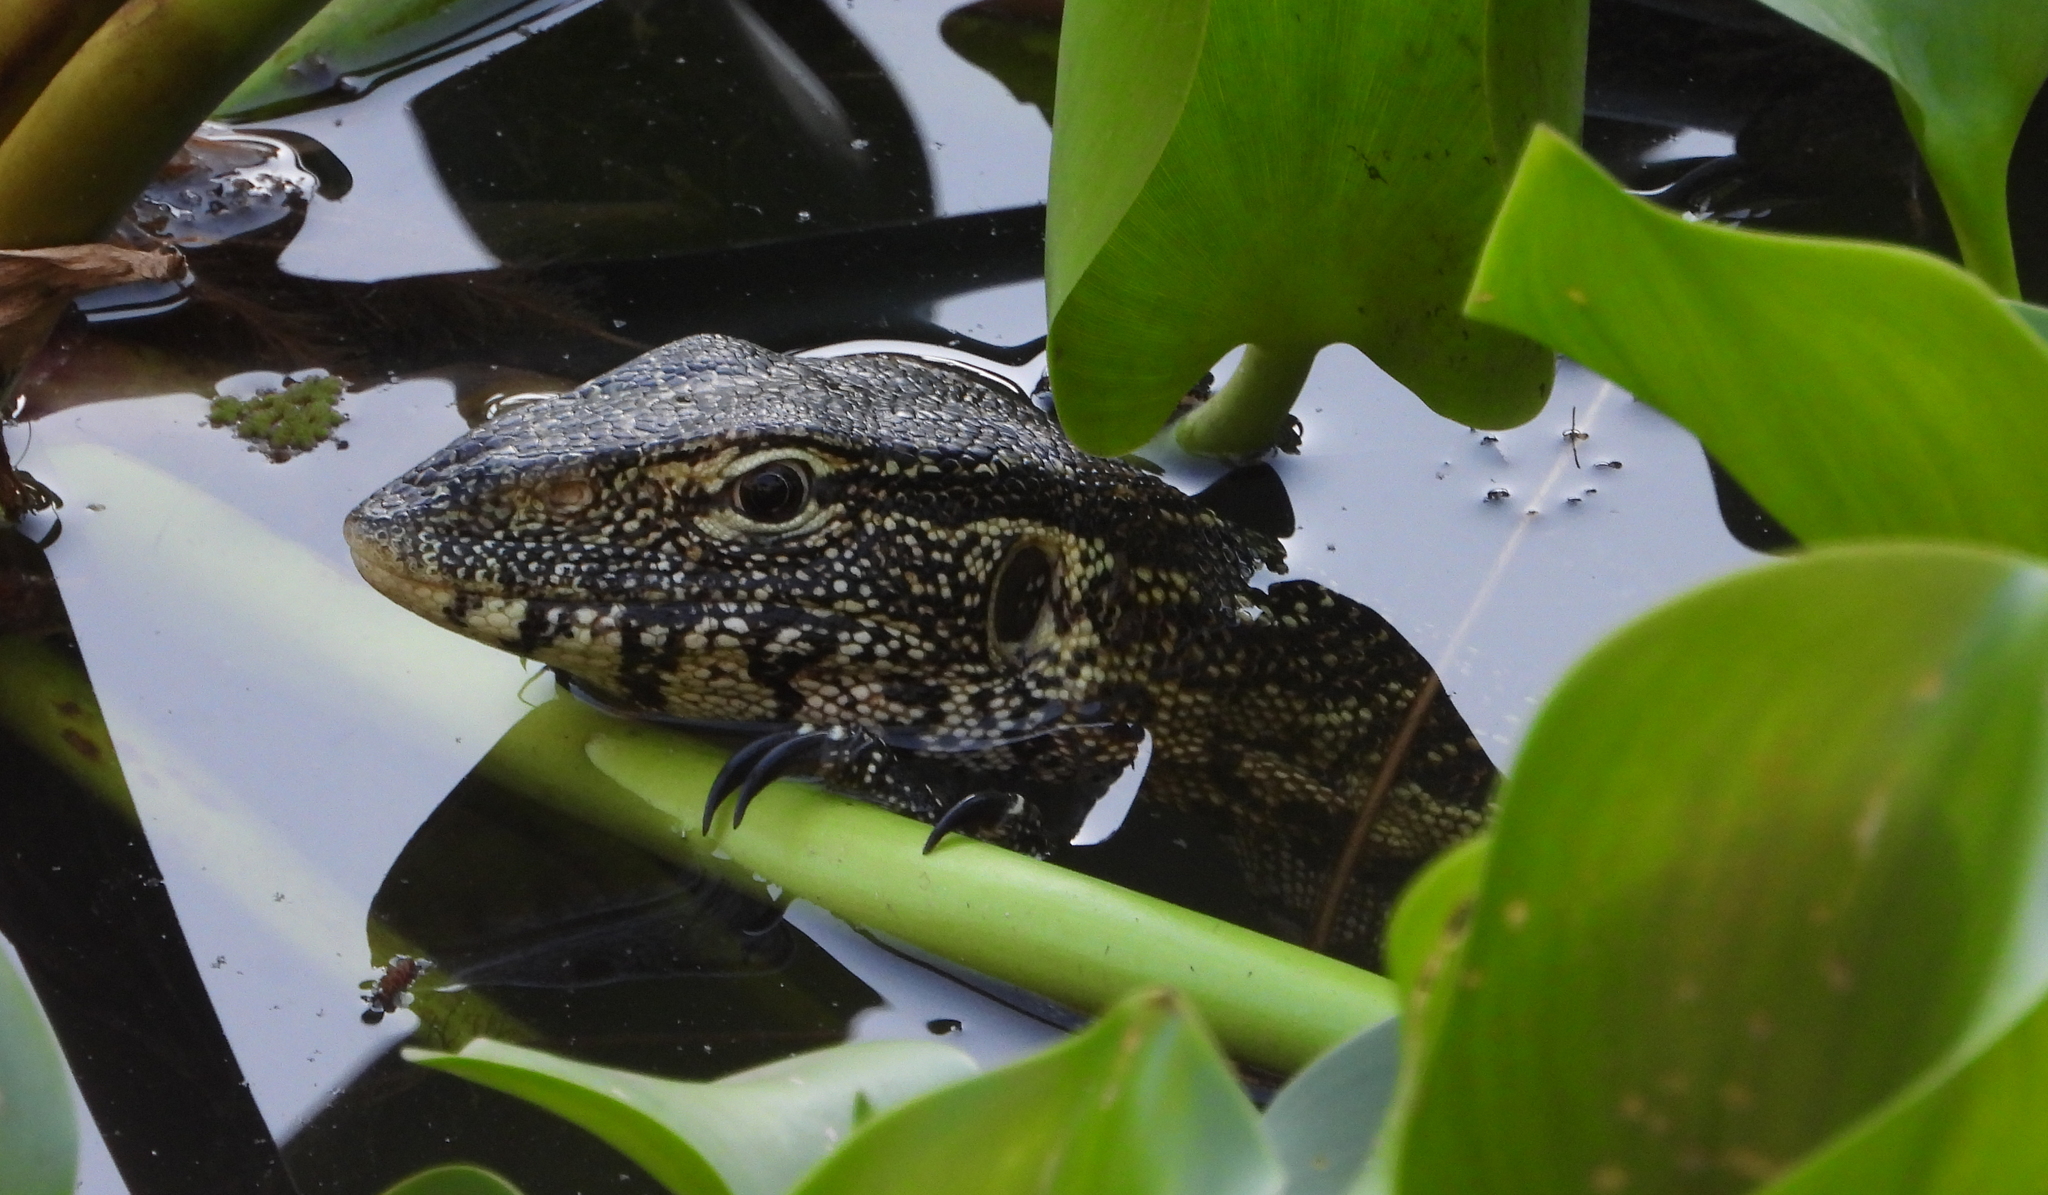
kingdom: Animalia
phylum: Chordata
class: Squamata
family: Varanidae
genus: Varanus
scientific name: Varanus niloticus
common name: Nile monitor
